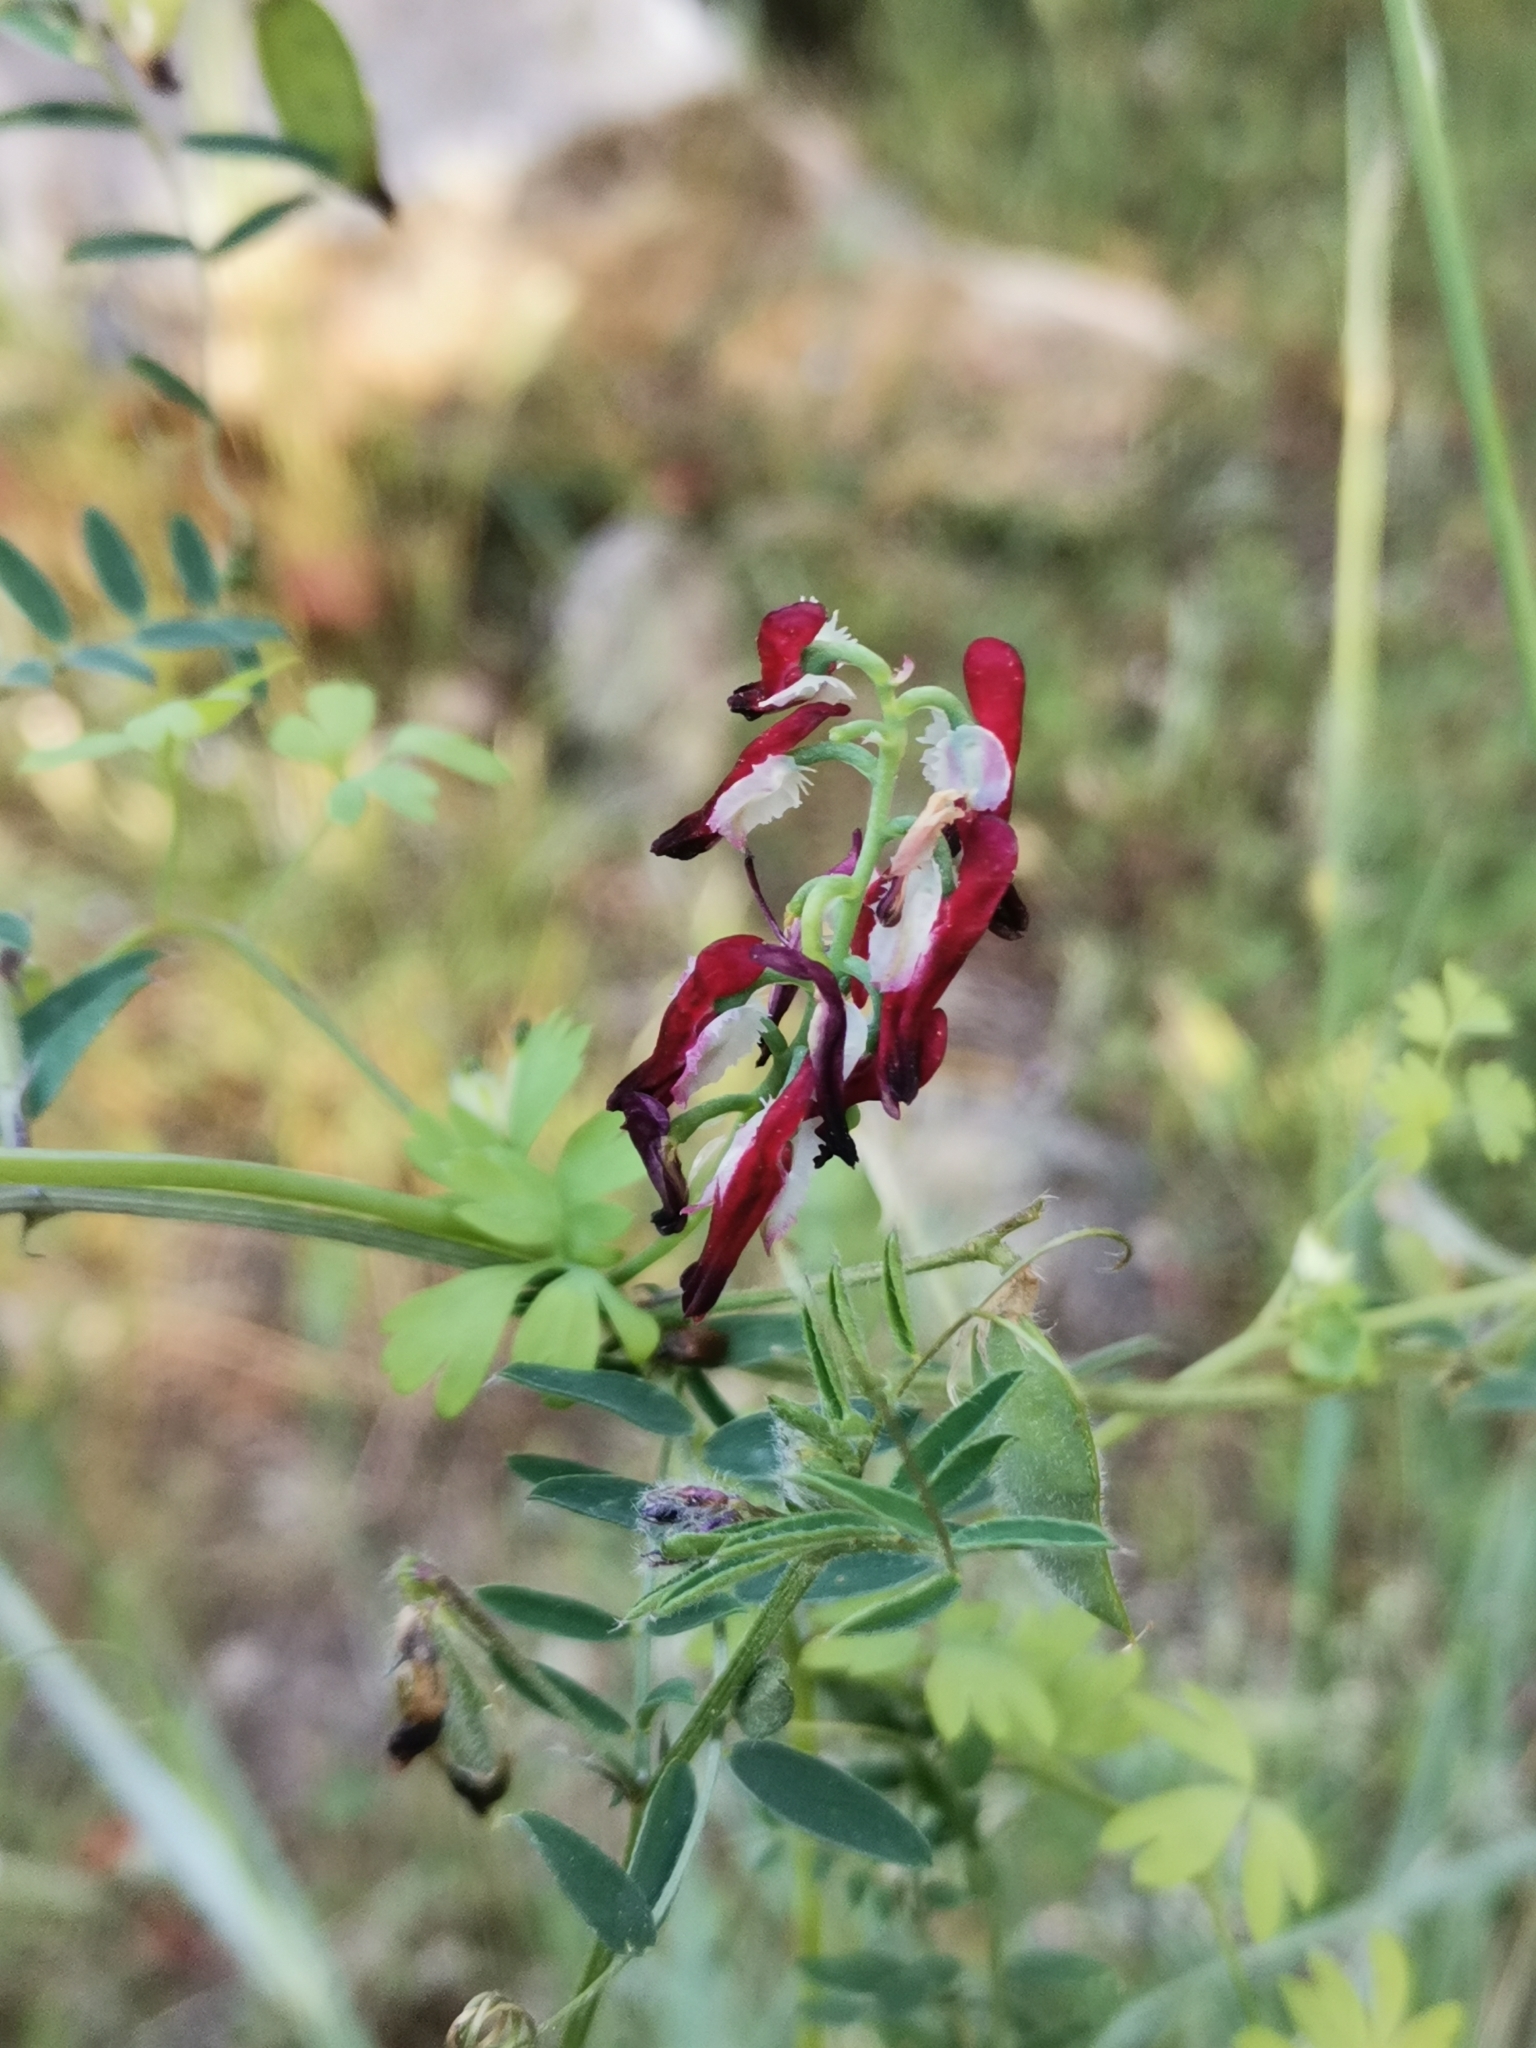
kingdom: Plantae
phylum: Tracheophyta
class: Magnoliopsida
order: Ranunculales
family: Papaveraceae
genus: Fumaria
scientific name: Fumaria capreolata
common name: White ramping-fumitory
